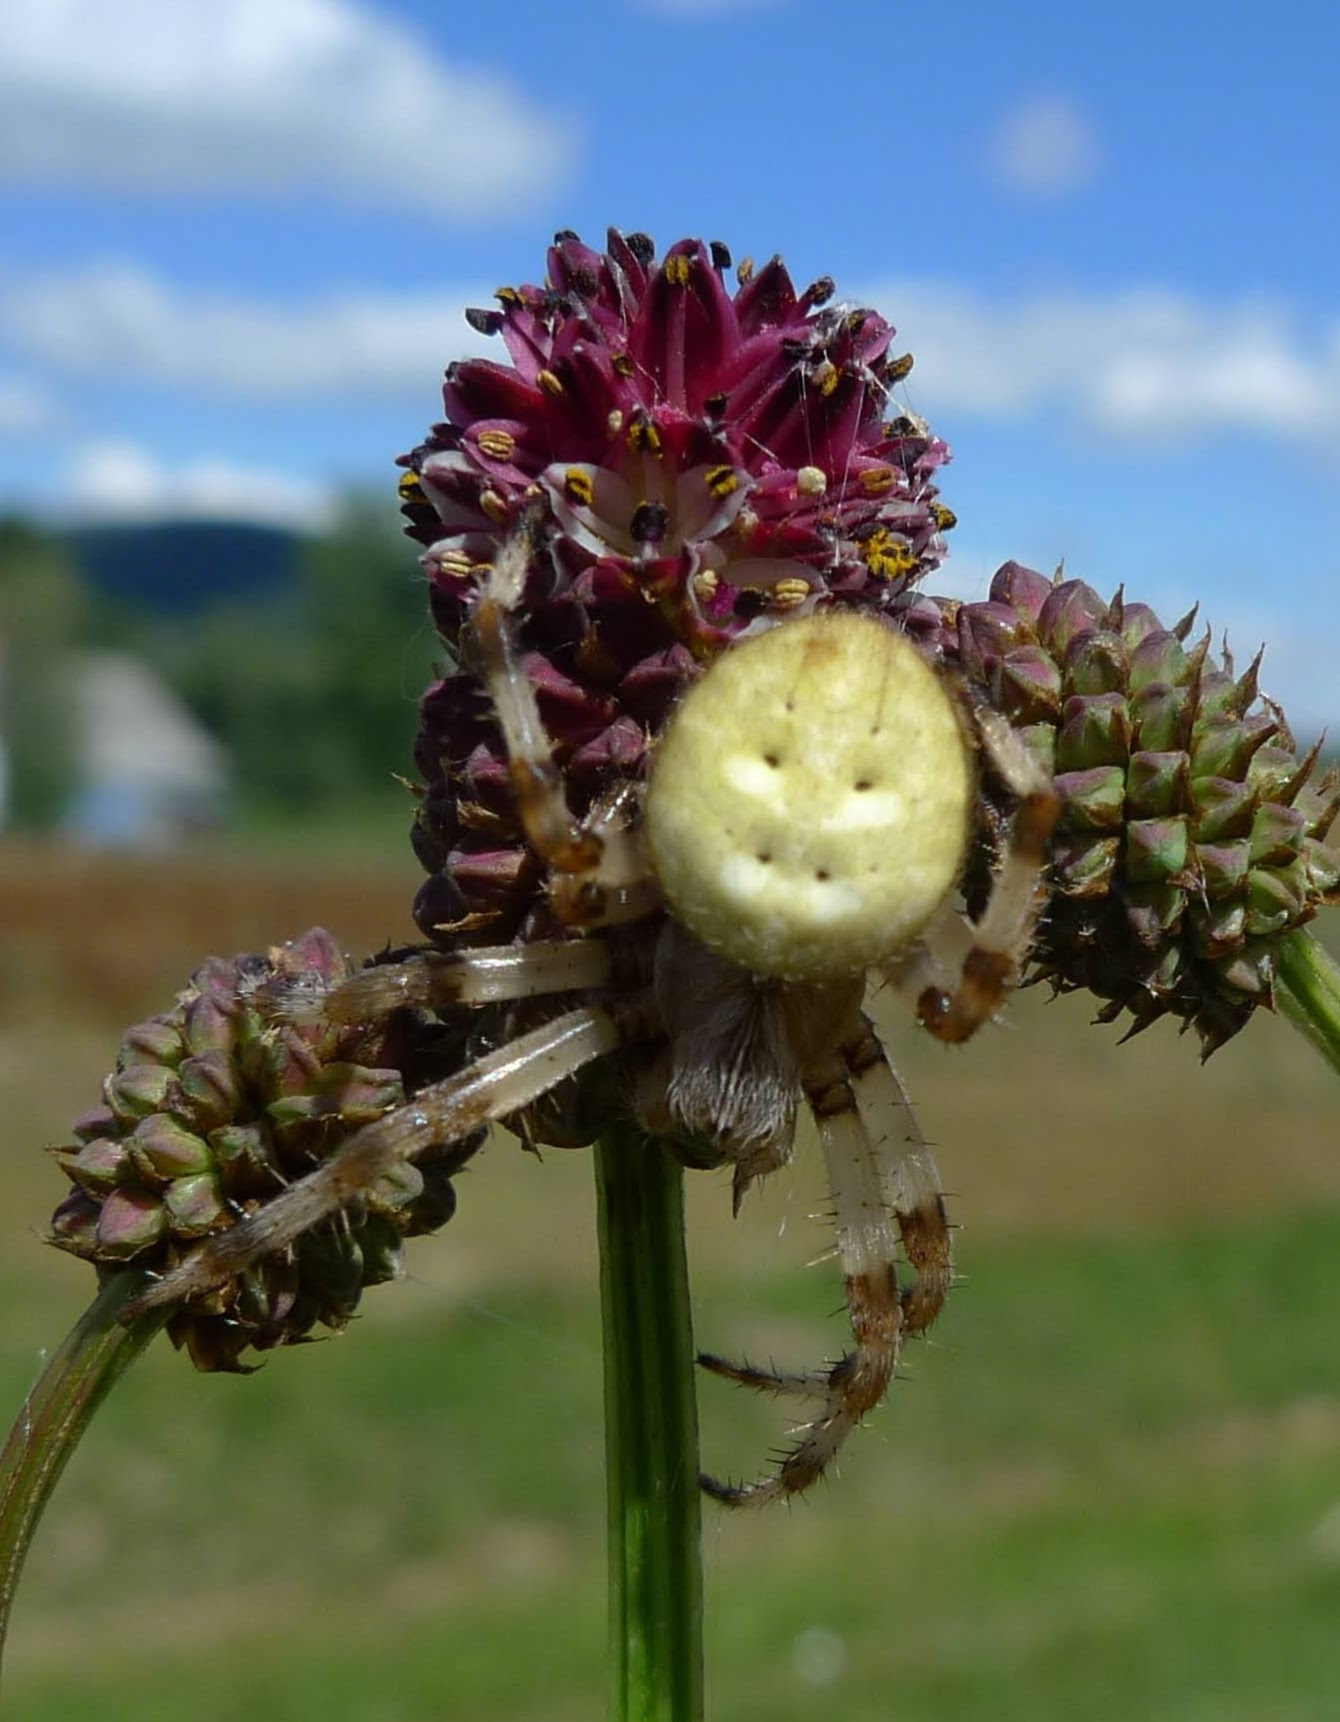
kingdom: Animalia
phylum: Arthropoda
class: Arachnida
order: Araneae
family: Araneidae
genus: Araneus
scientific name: Araneus quadratus
